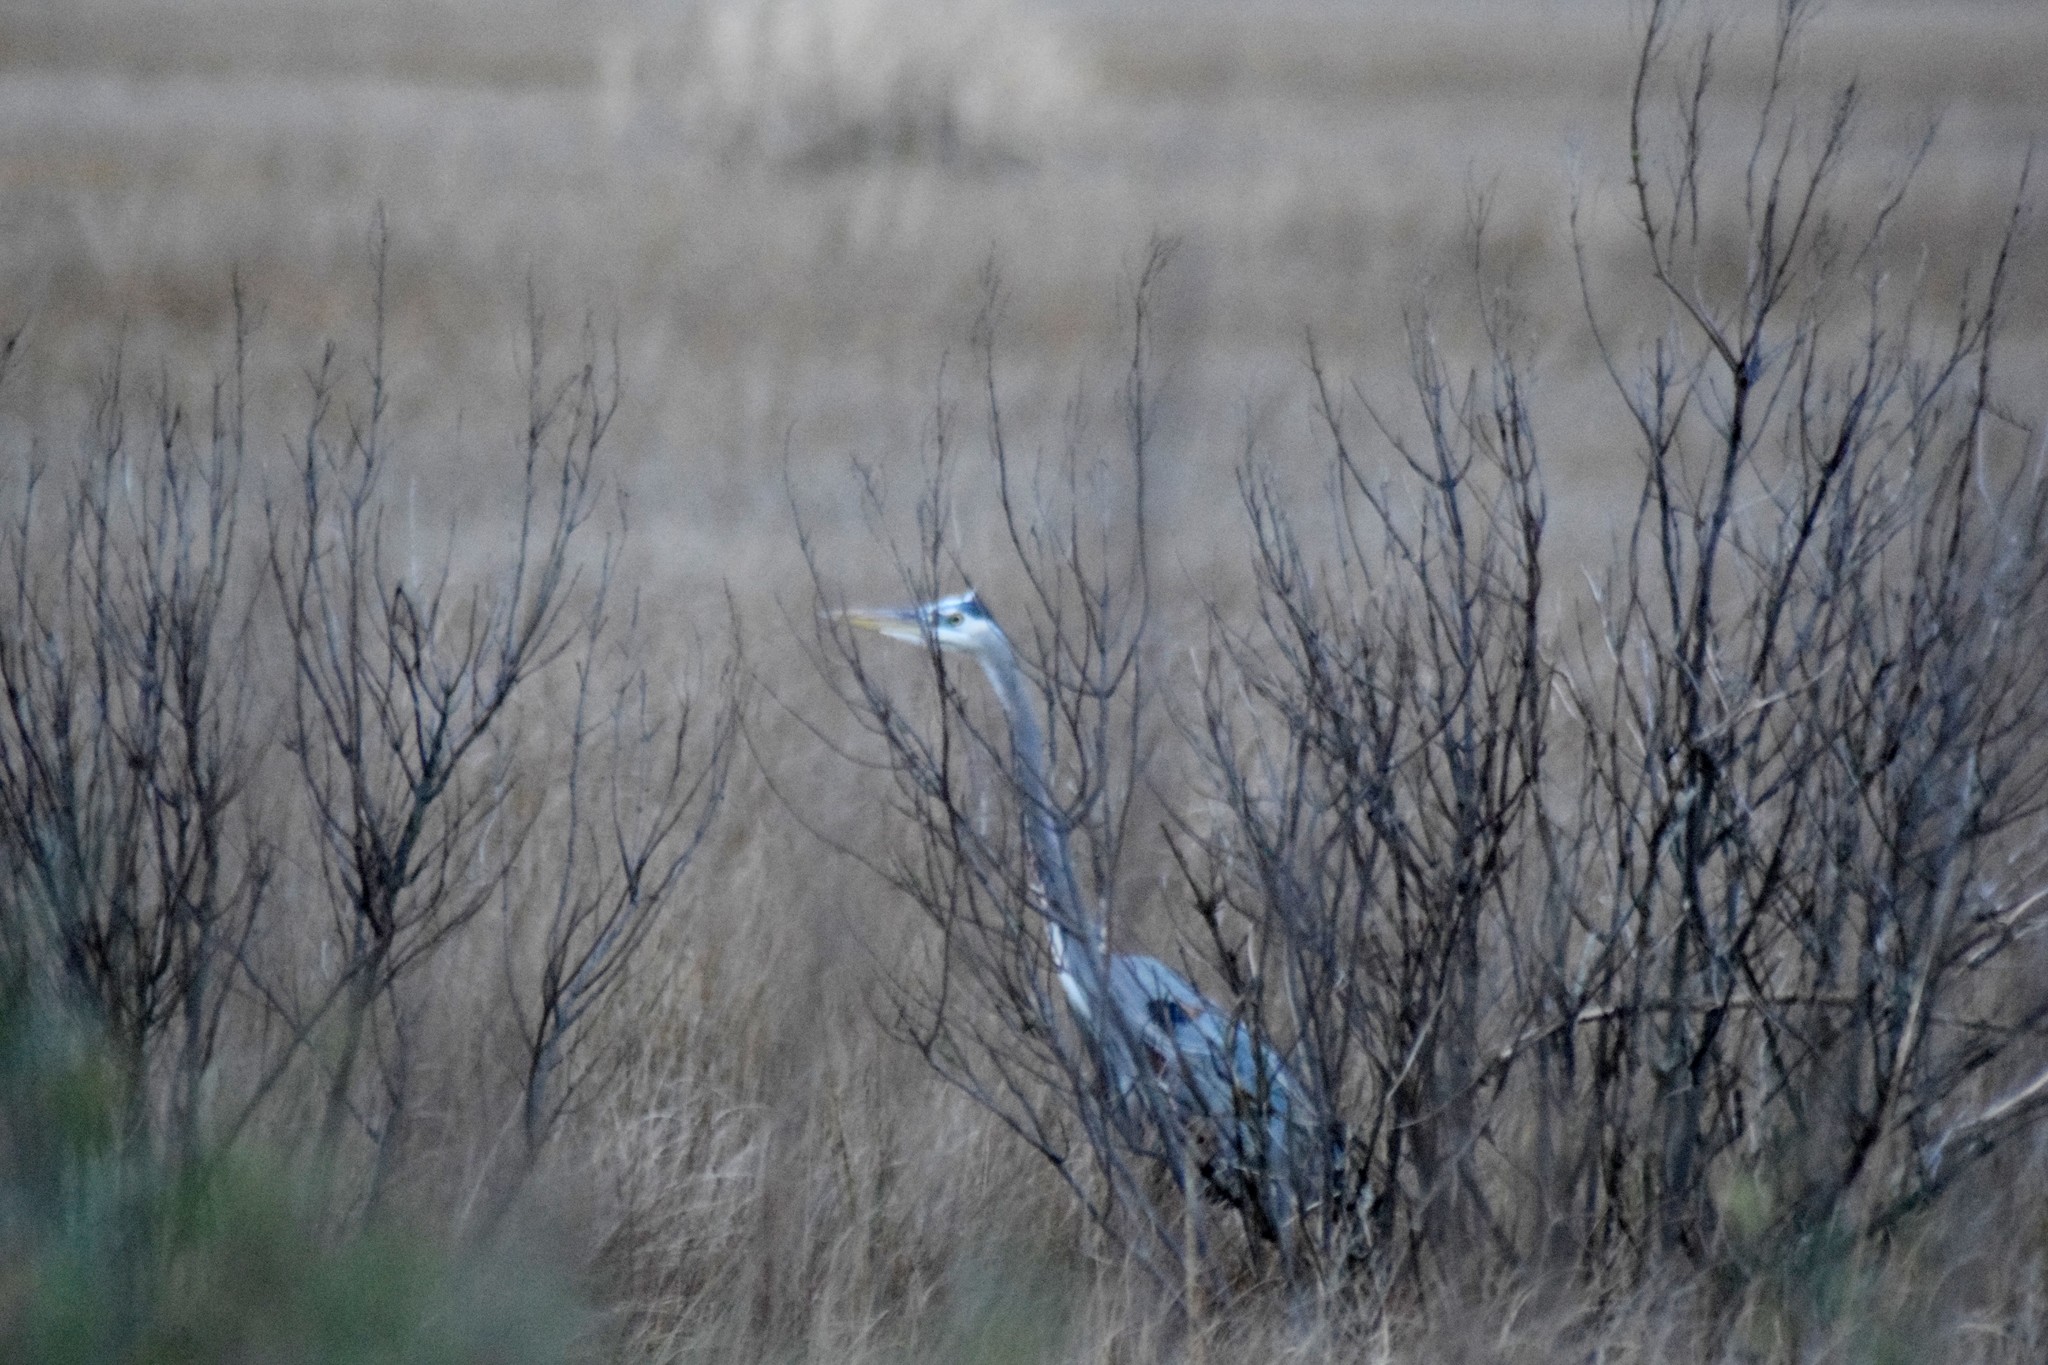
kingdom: Animalia
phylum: Chordata
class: Aves
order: Pelecaniformes
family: Ardeidae
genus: Ardea
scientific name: Ardea herodias
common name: Great blue heron
